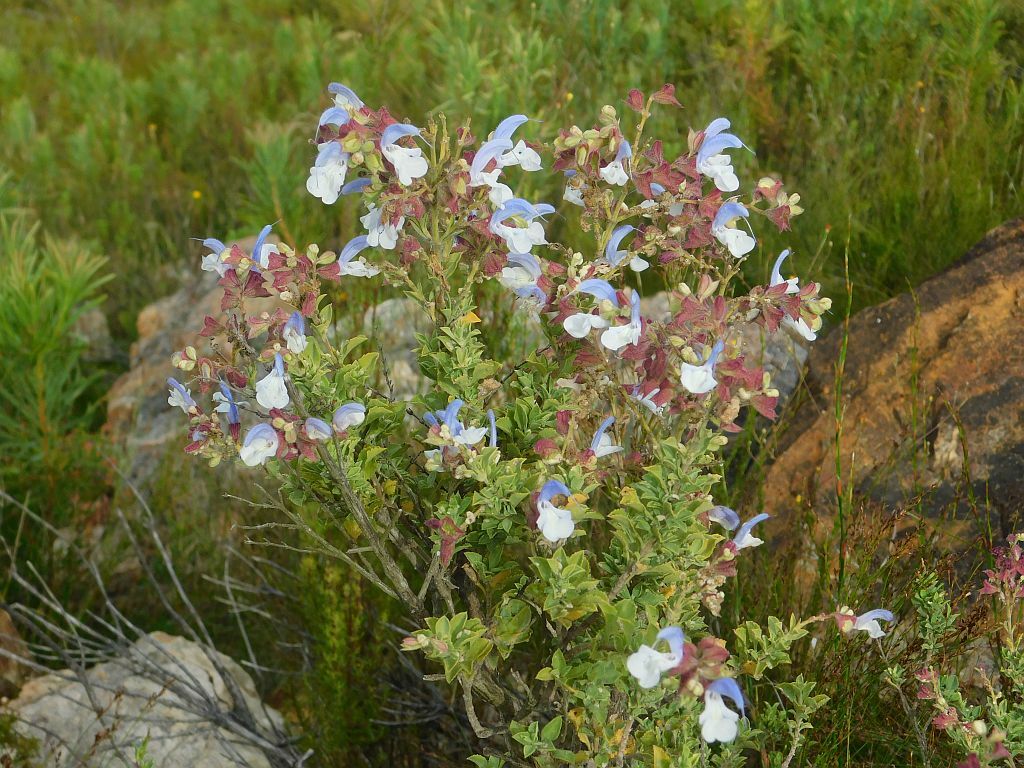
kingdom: Plantae
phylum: Tracheophyta
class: Magnoliopsida
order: Lamiales
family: Lamiaceae
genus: Salvia
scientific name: Salvia chamelaeagnea
